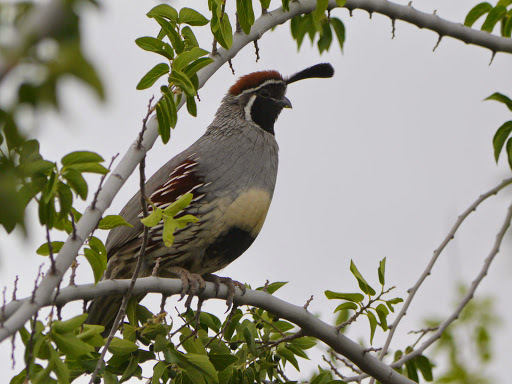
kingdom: Animalia
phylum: Chordata
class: Aves
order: Galliformes
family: Odontophoridae
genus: Callipepla
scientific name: Callipepla gambelii
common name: Gambel's quail
